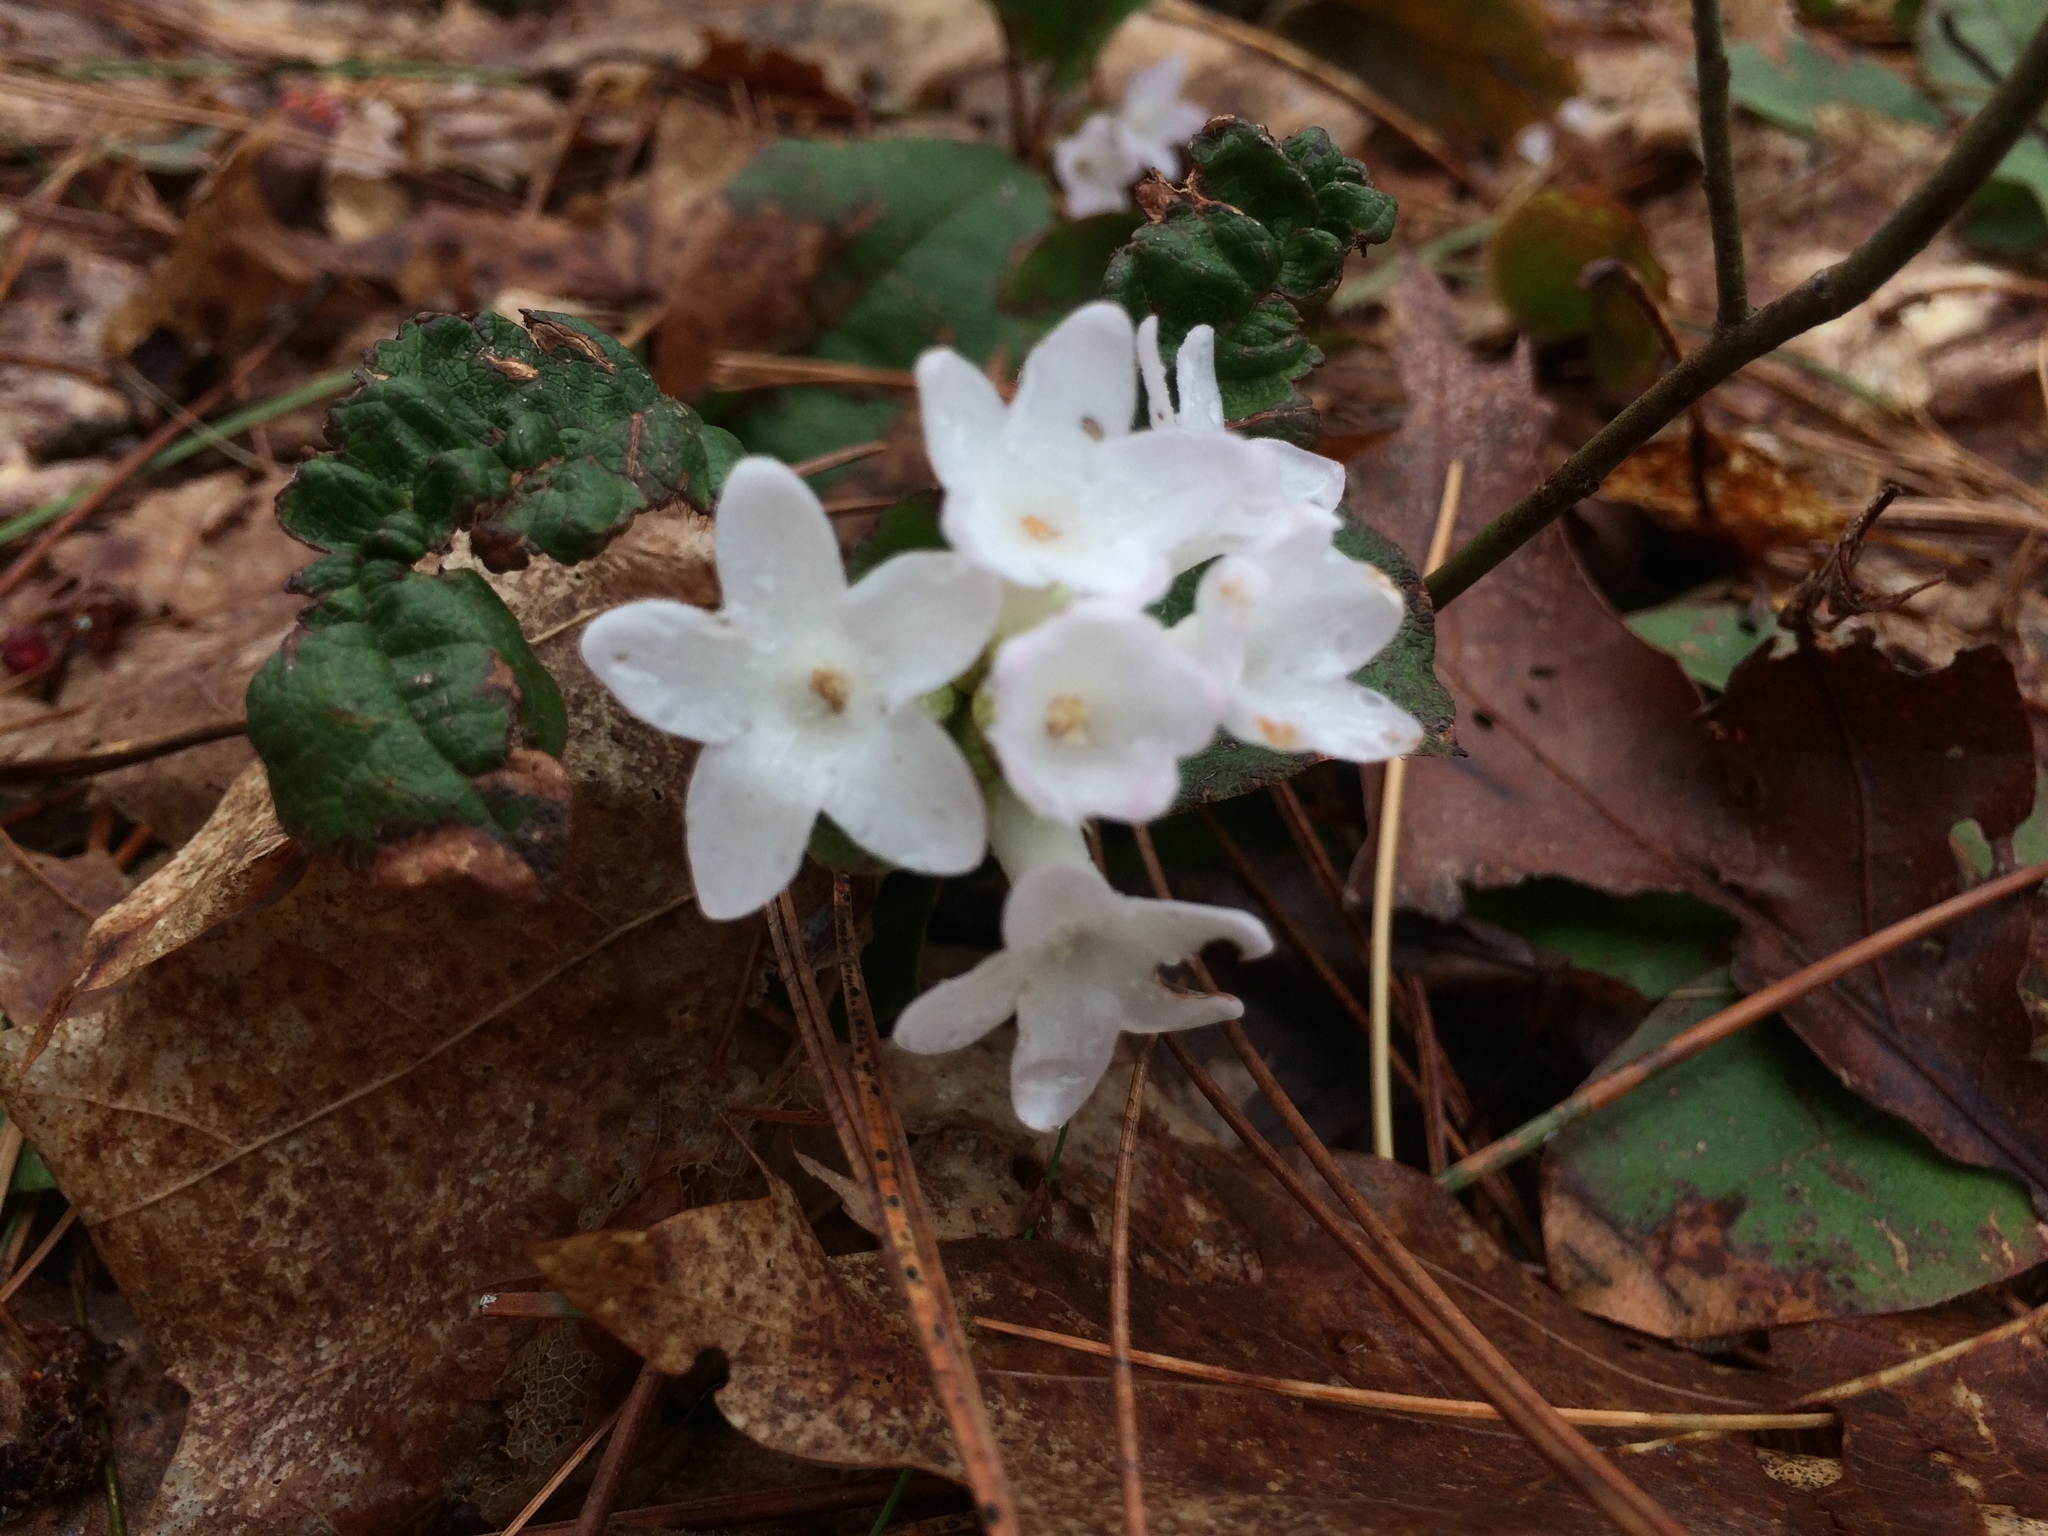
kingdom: Plantae
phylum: Tracheophyta
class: Magnoliopsida
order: Ericales
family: Ericaceae
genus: Epigaea
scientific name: Epigaea repens
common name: Gravelroot
